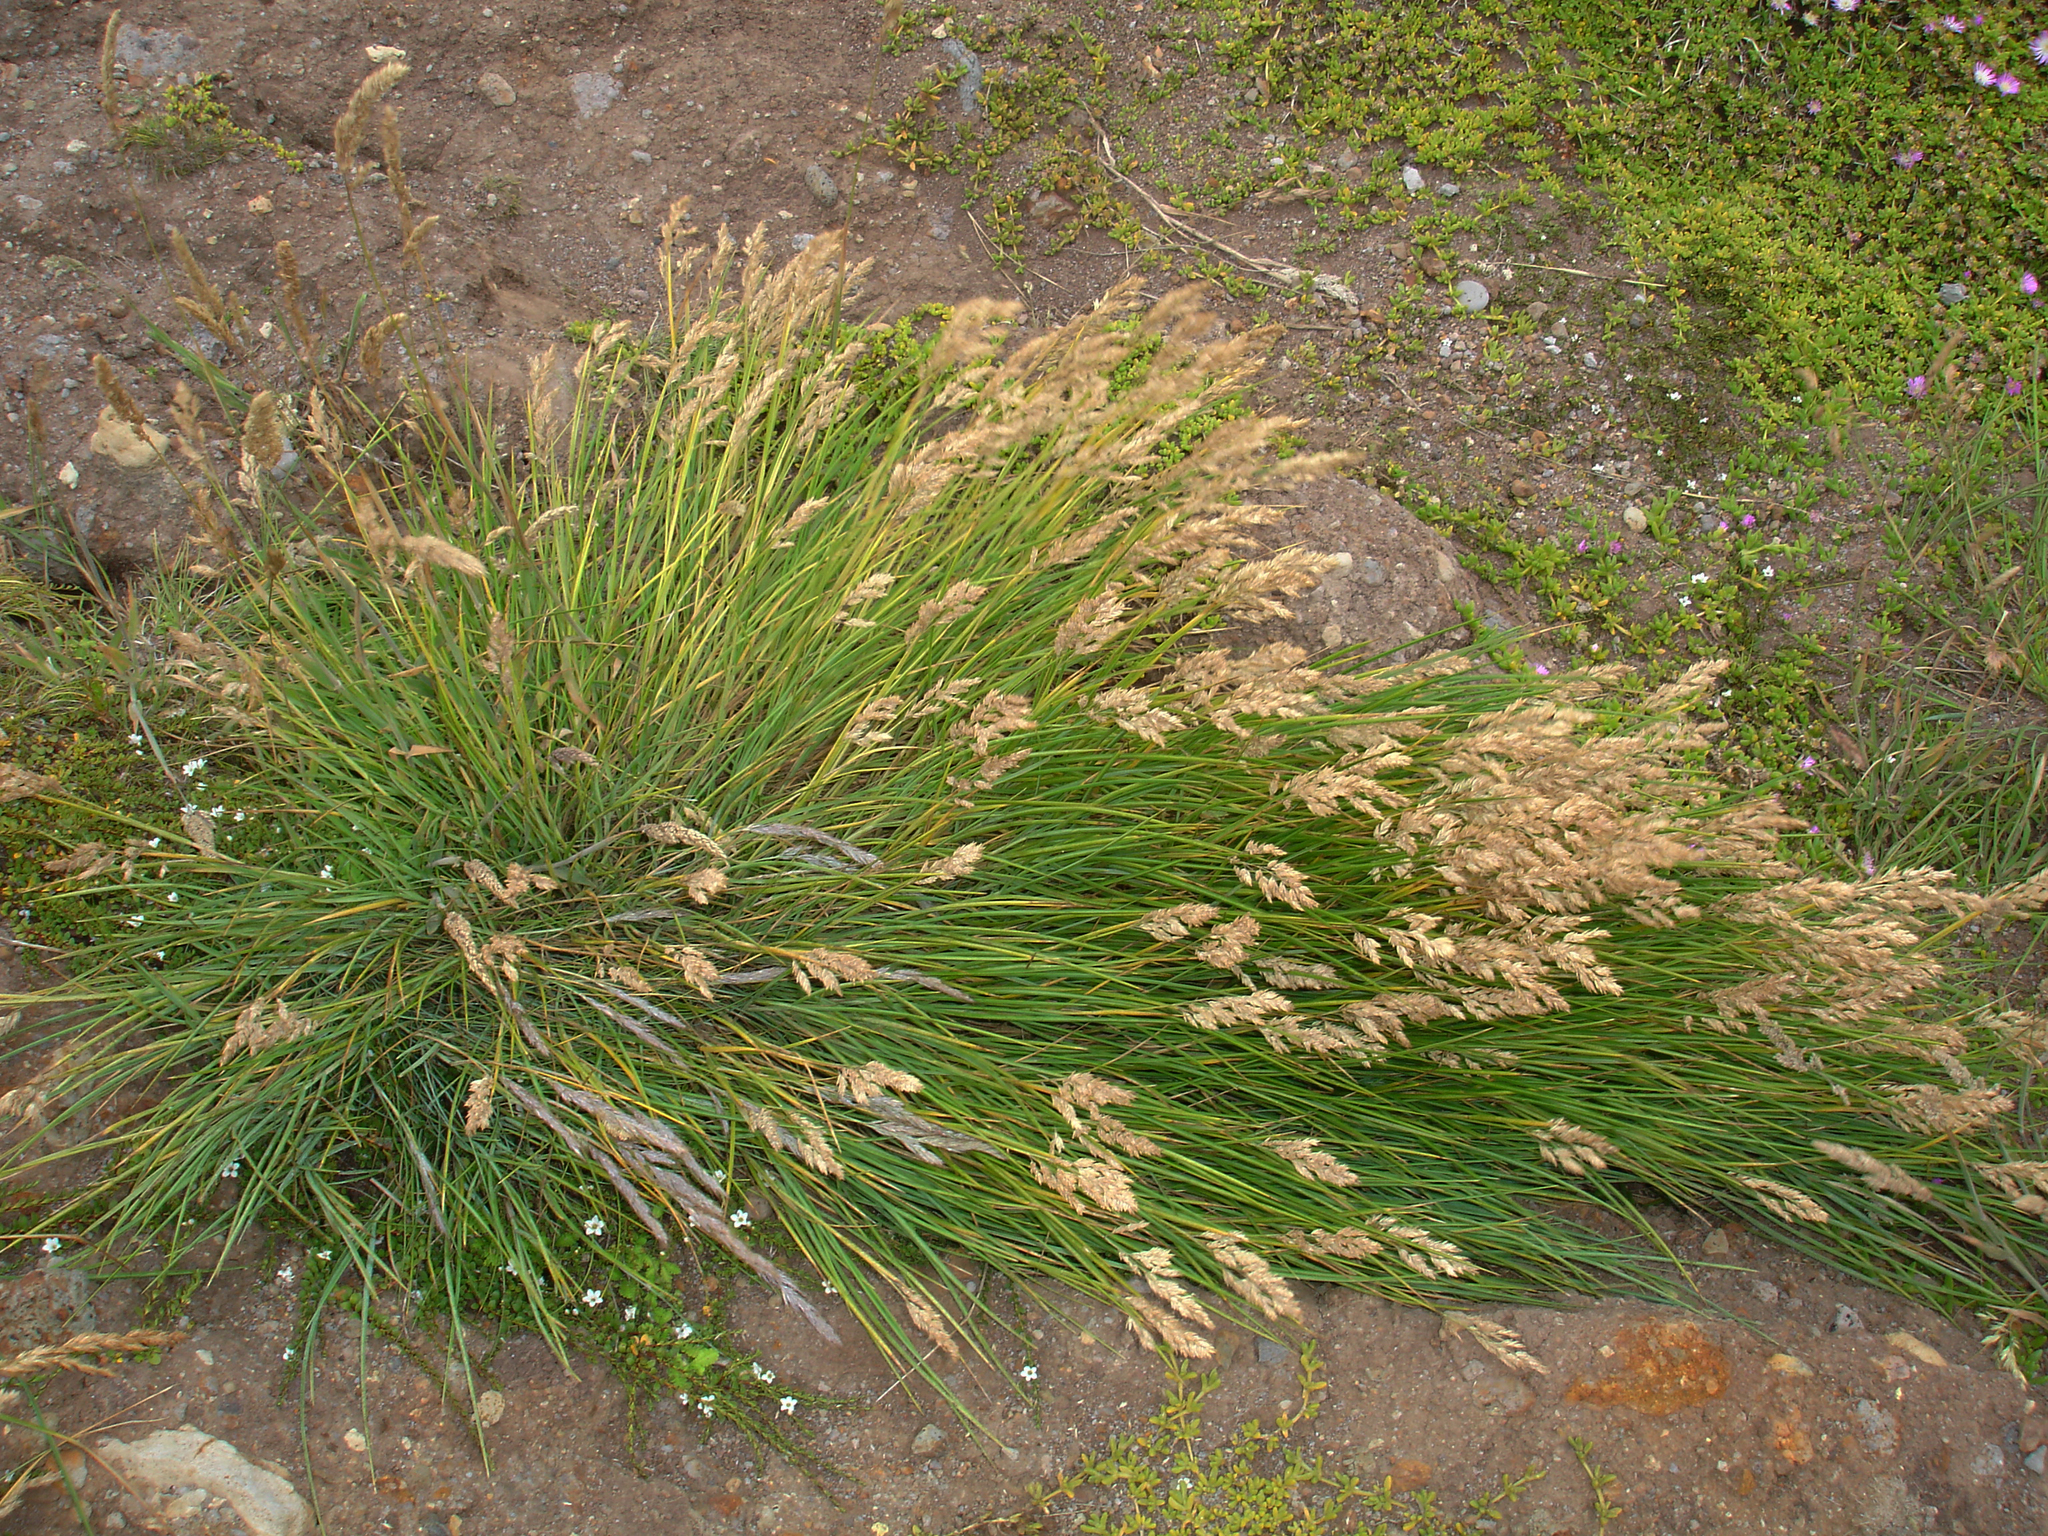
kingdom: Plantae
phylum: Tracheophyta
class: Liliopsida
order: Poales
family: Poaceae
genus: Poa
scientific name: Poa chathamica
